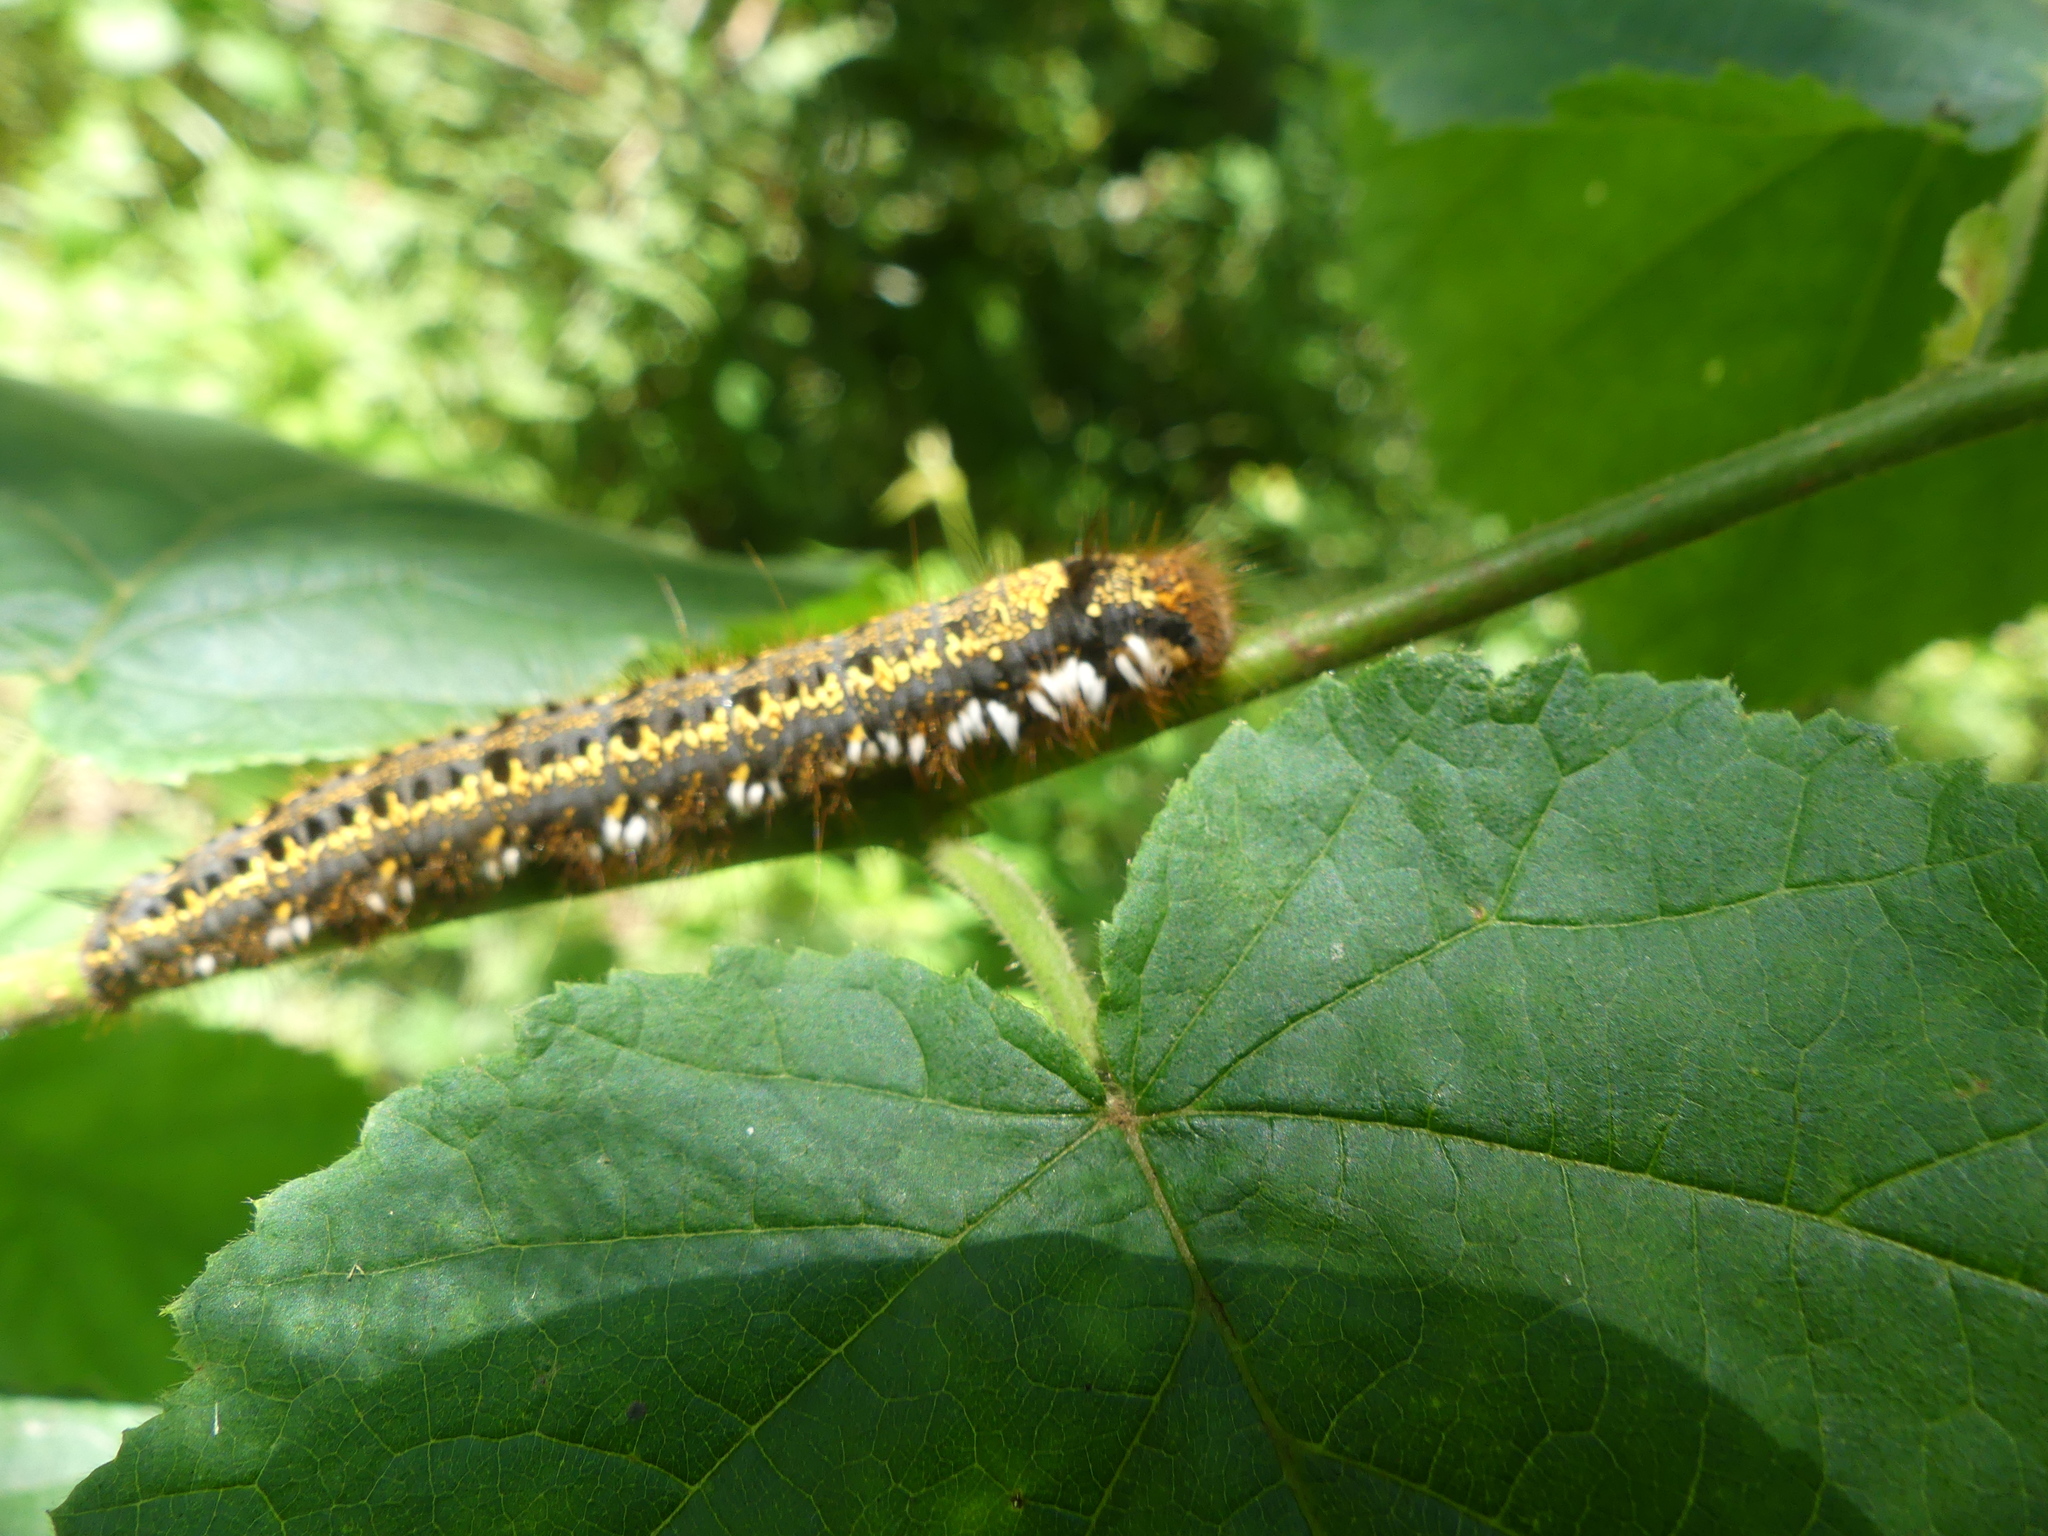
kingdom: Animalia
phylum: Arthropoda
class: Insecta
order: Lepidoptera
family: Lasiocampidae
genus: Euthrix
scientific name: Euthrix potatoria
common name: Drinker
